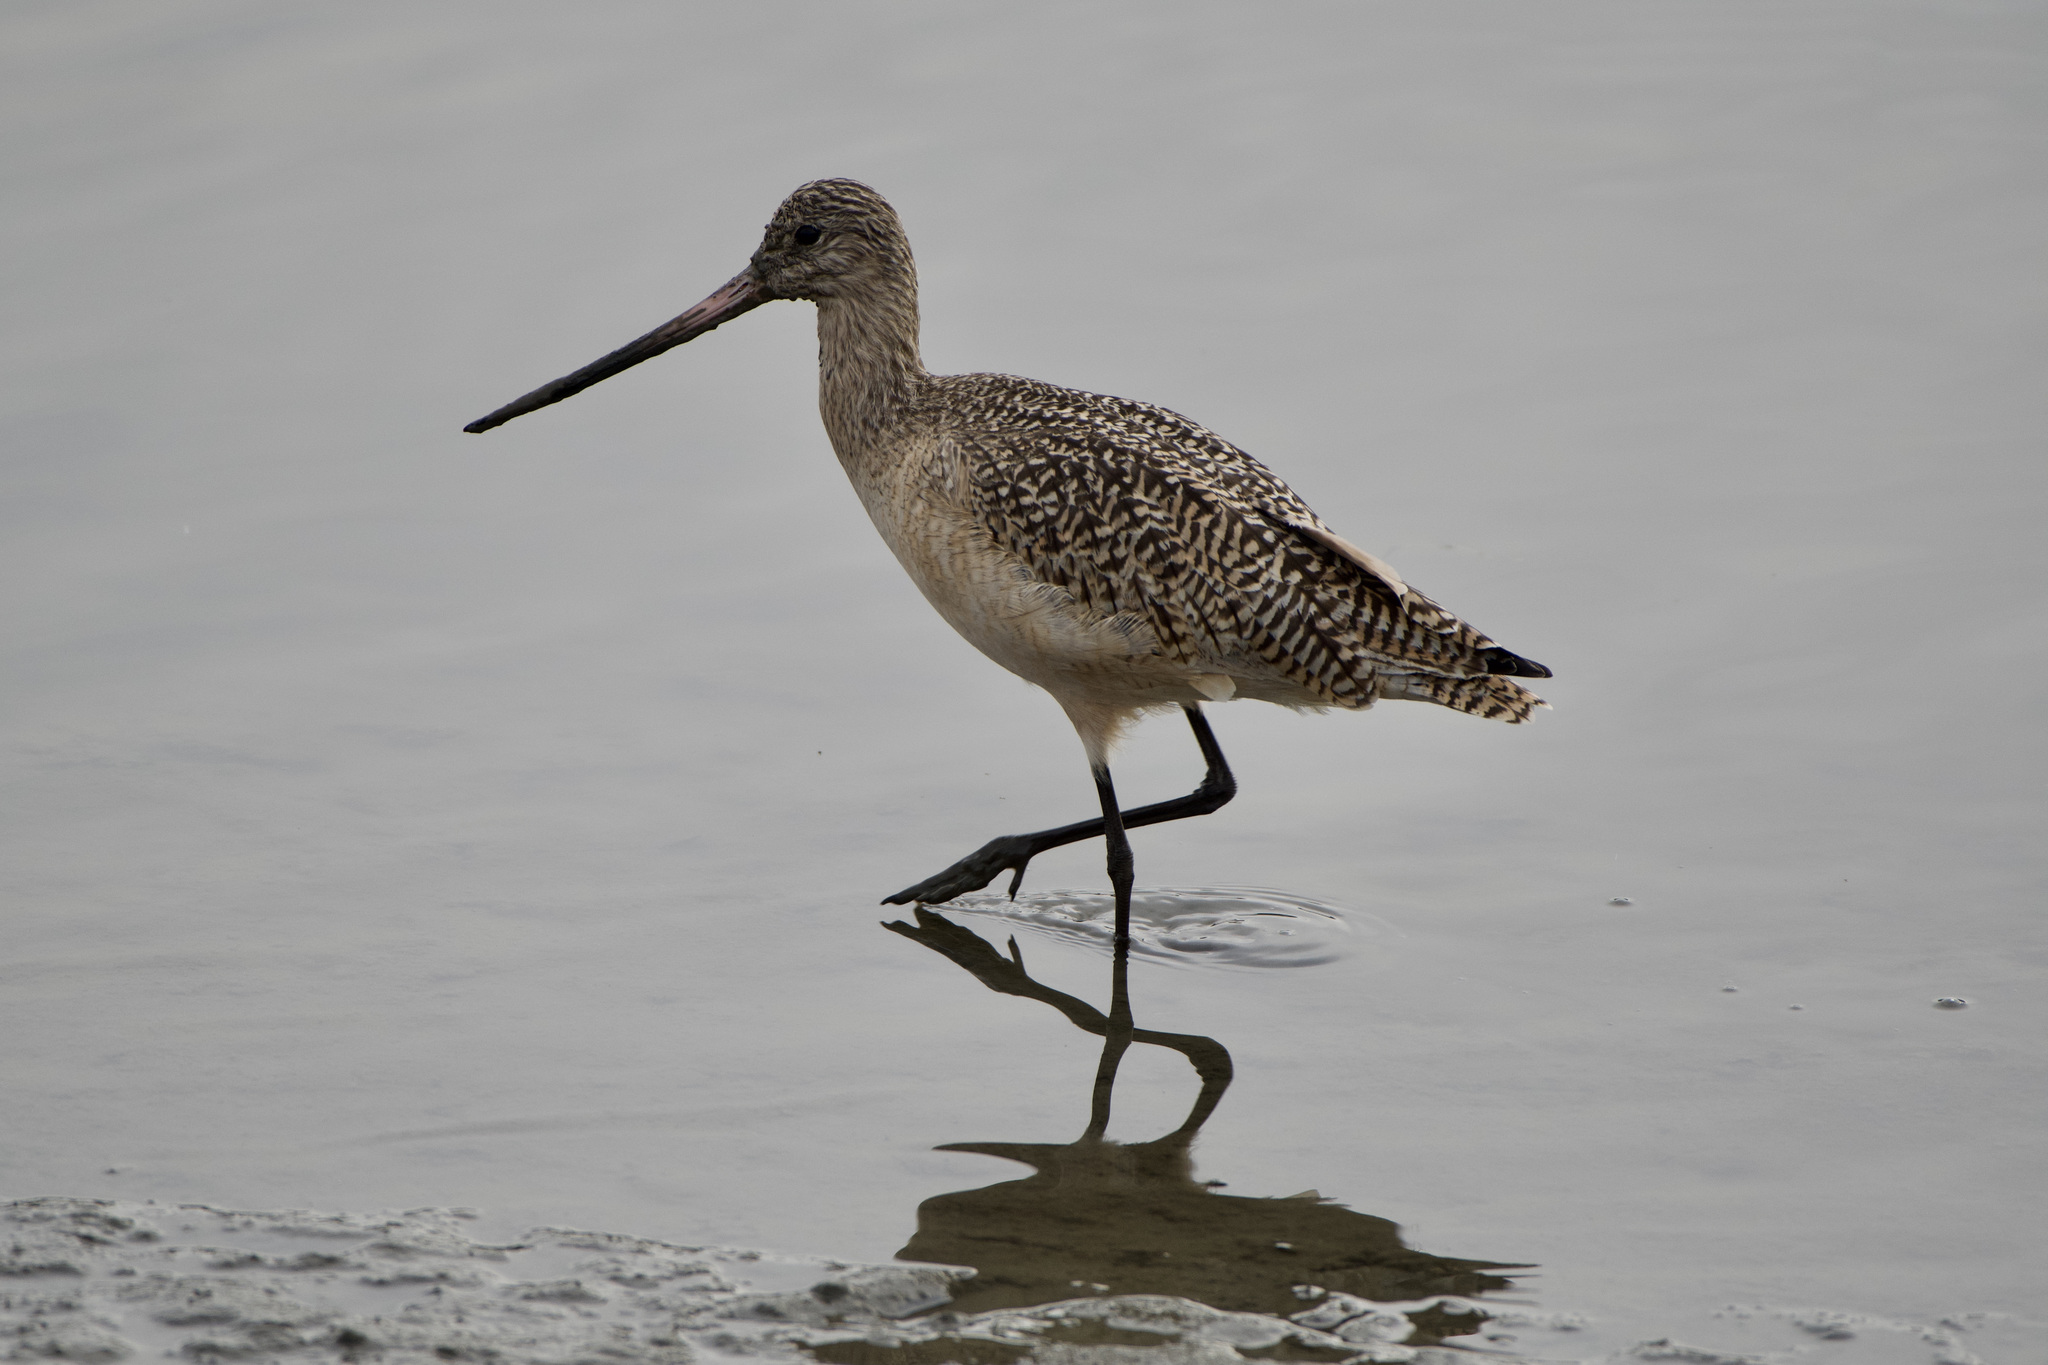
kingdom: Animalia
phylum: Chordata
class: Aves
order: Charadriiformes
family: Scolopacidae
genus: Limosa
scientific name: Limosa fedoa
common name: Marbled godwit
